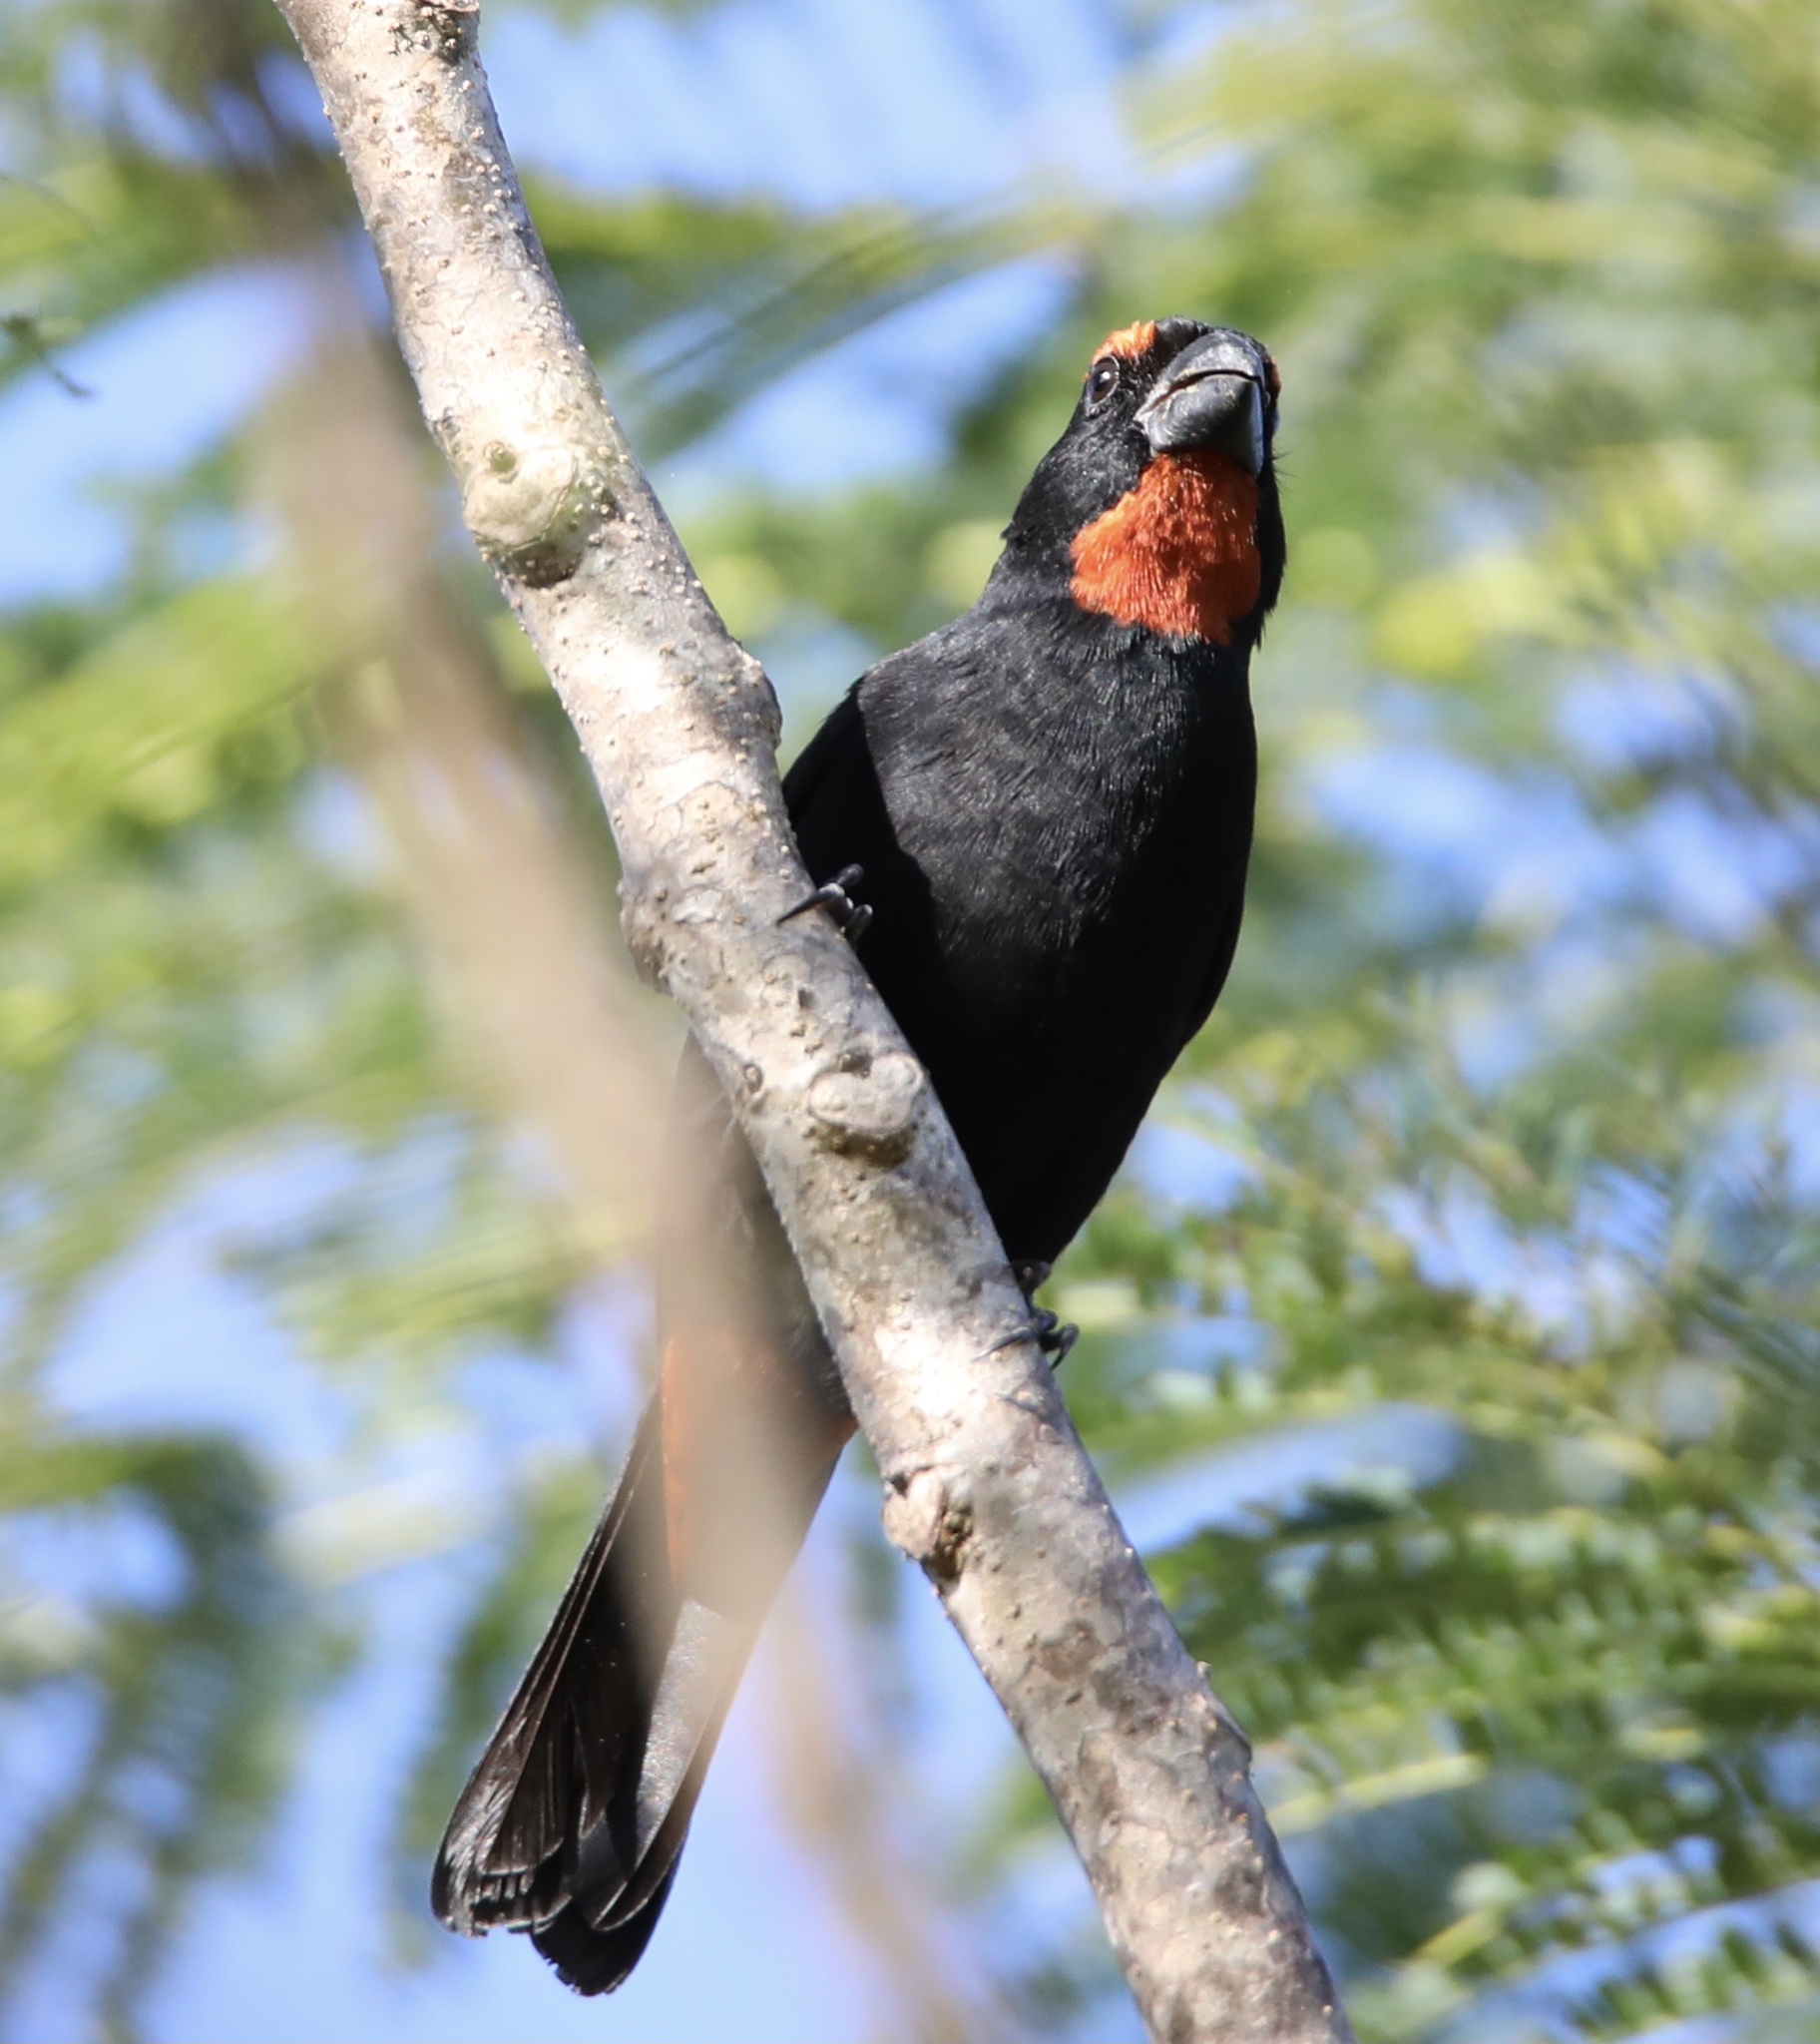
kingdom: Animalia
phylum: Chordata
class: Aves
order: Passeriformes
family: Thraupidae
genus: Melopyrrha
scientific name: Melopyrrha violacea
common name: Greater antillean bullfinch
